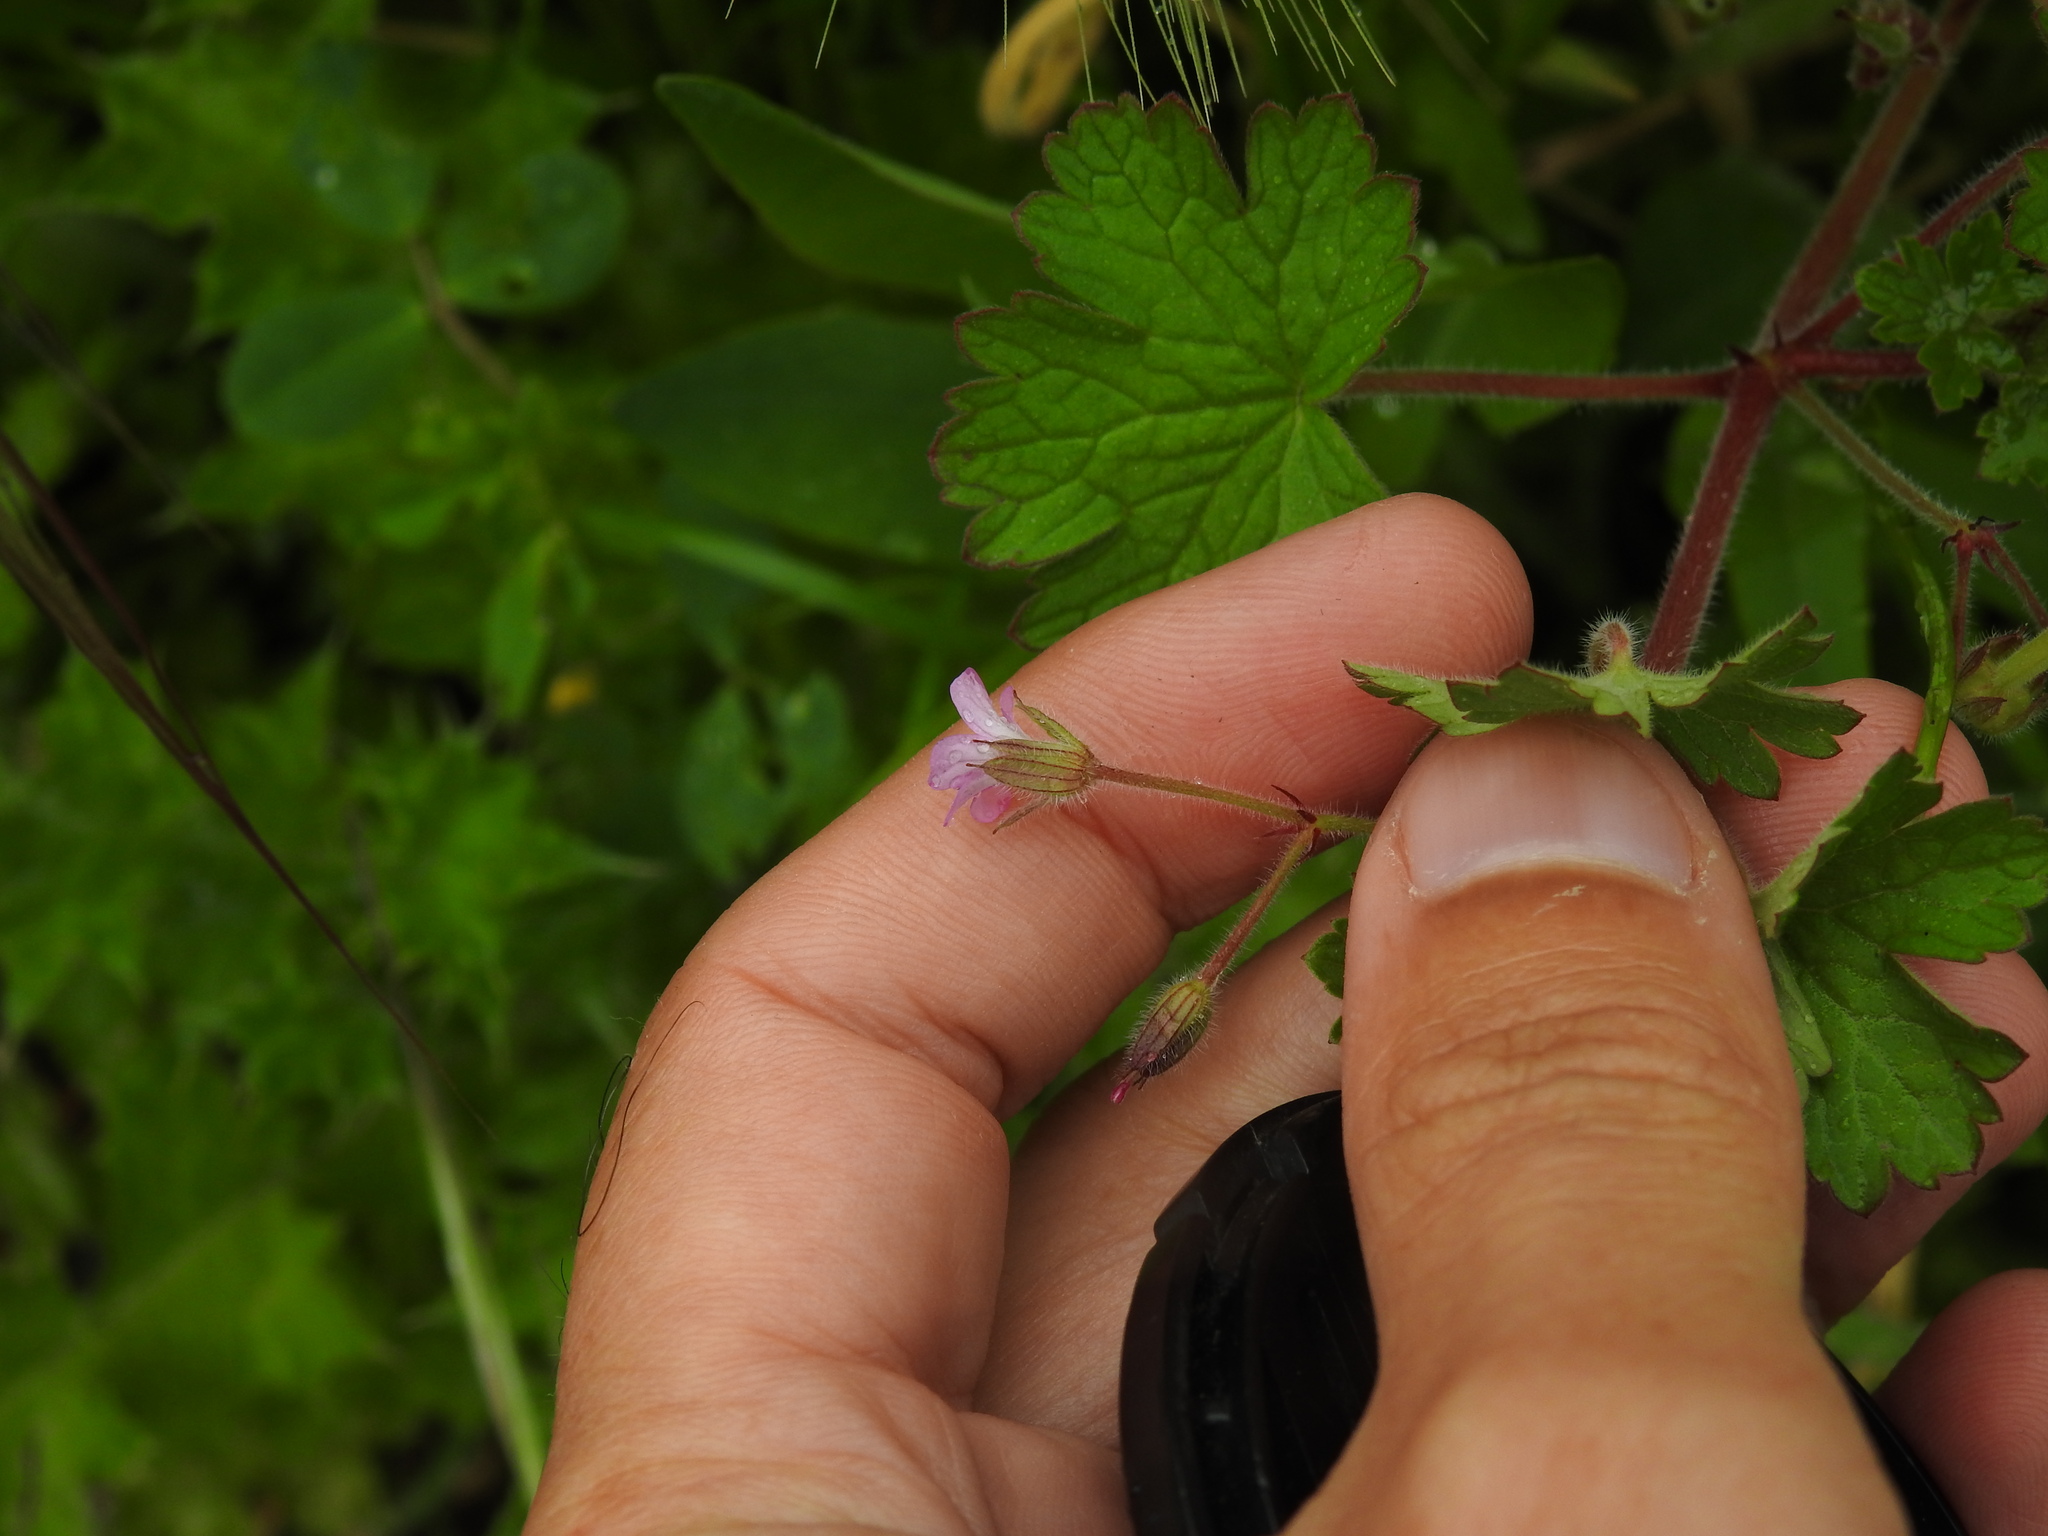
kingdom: Plantae
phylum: Tracheophyta
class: Magnoliopsida
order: Geraniales
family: Geraniaceae
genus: Geranium
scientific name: Geranium rotundifolium
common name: Round-leaved crane's-bill
